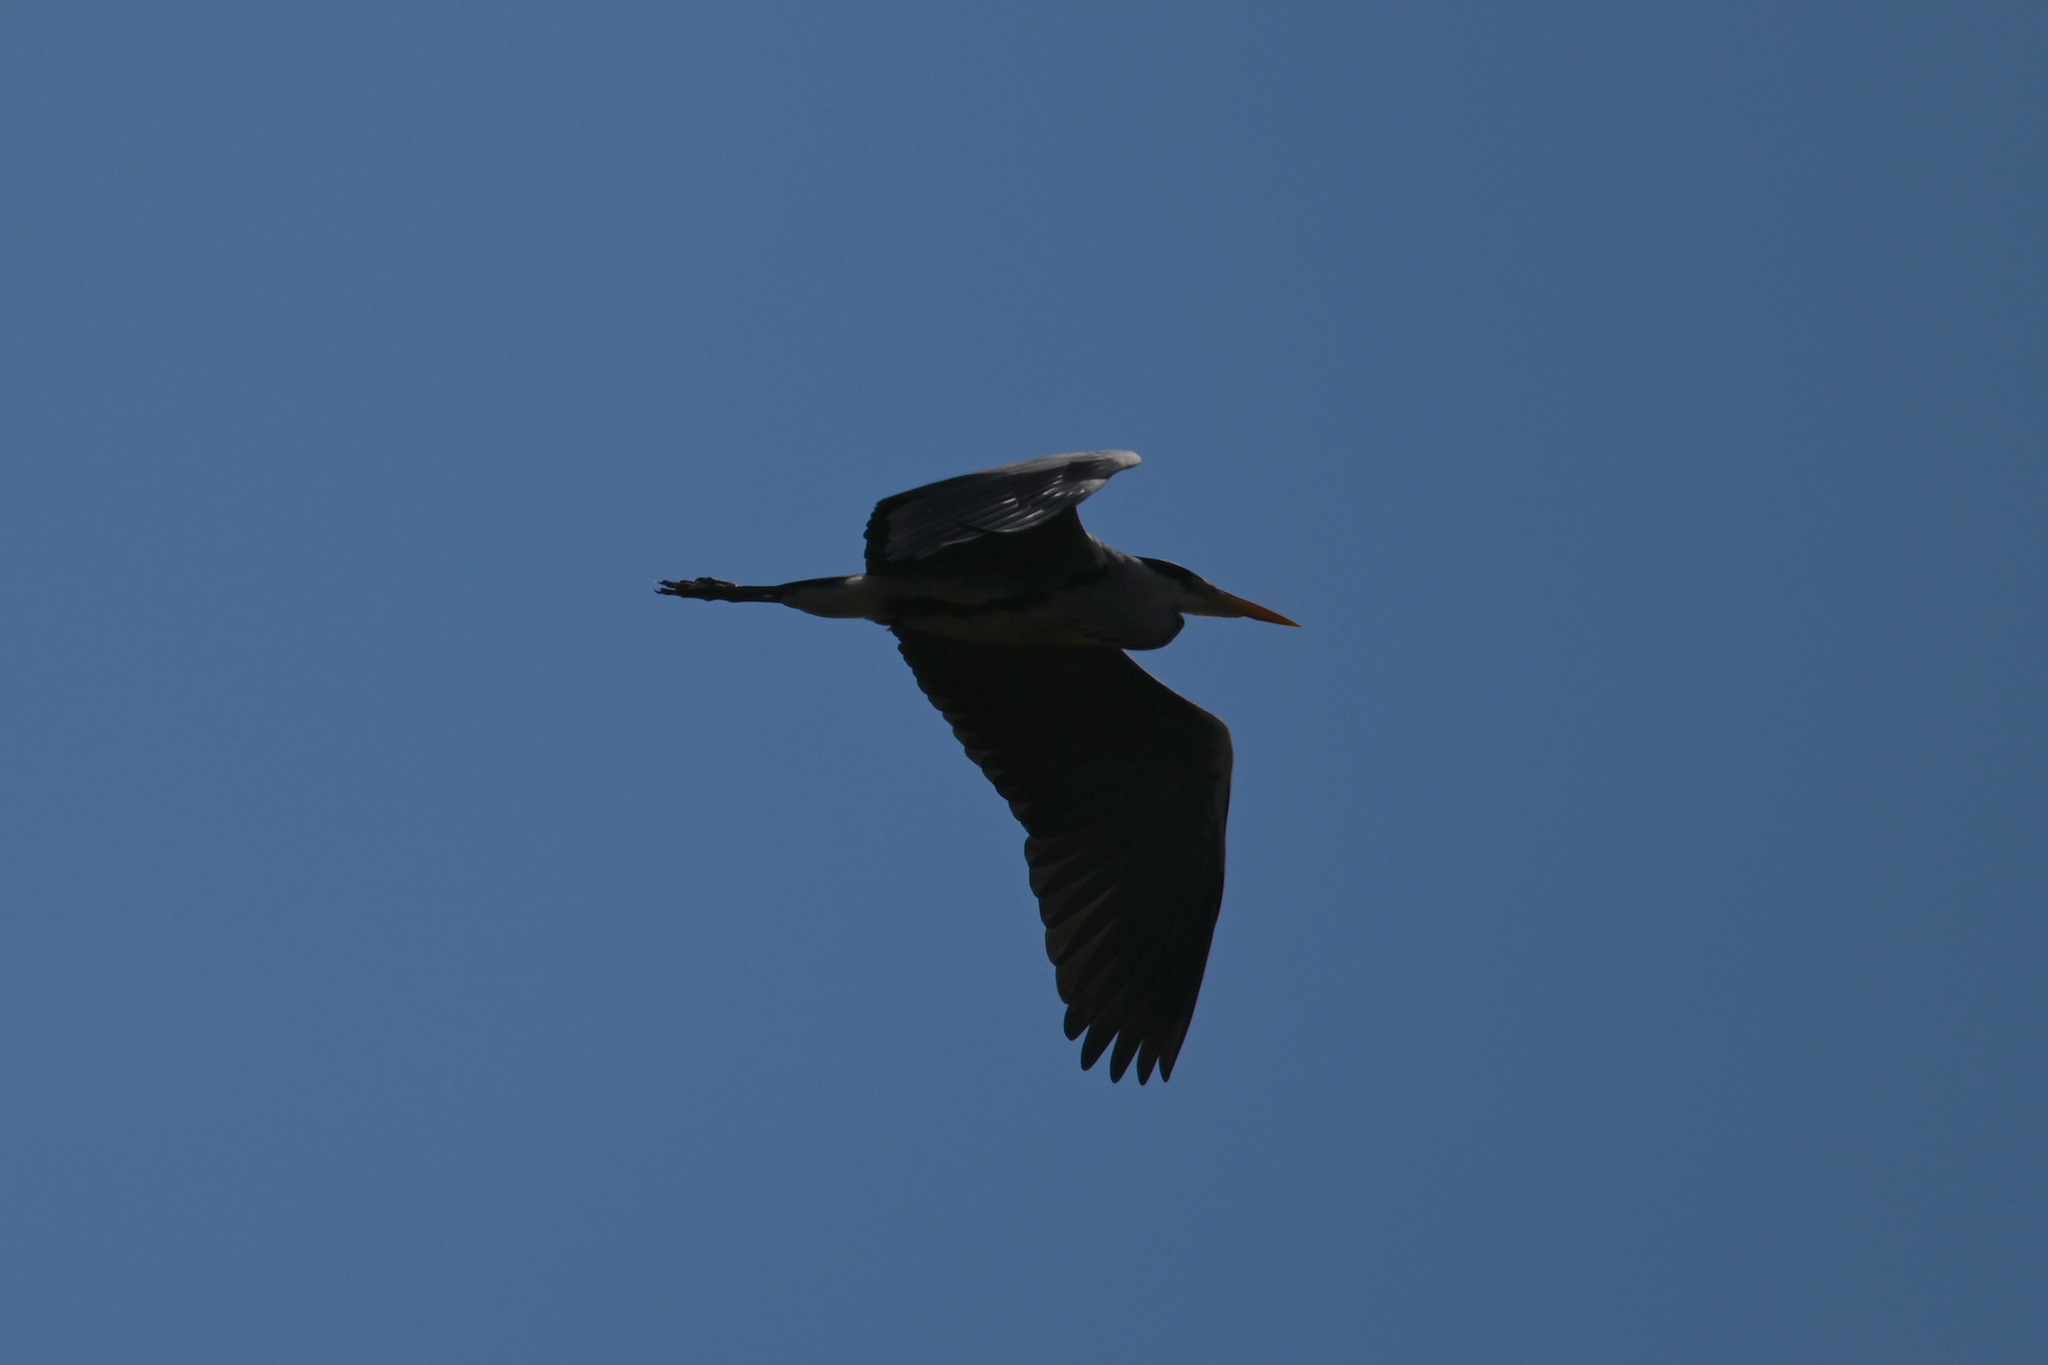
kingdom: Animalia
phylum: Chordata
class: Aves
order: Pelecaniformes
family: Ardeidae
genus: Ardea
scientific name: Ardea cinerea
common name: Grey heron
